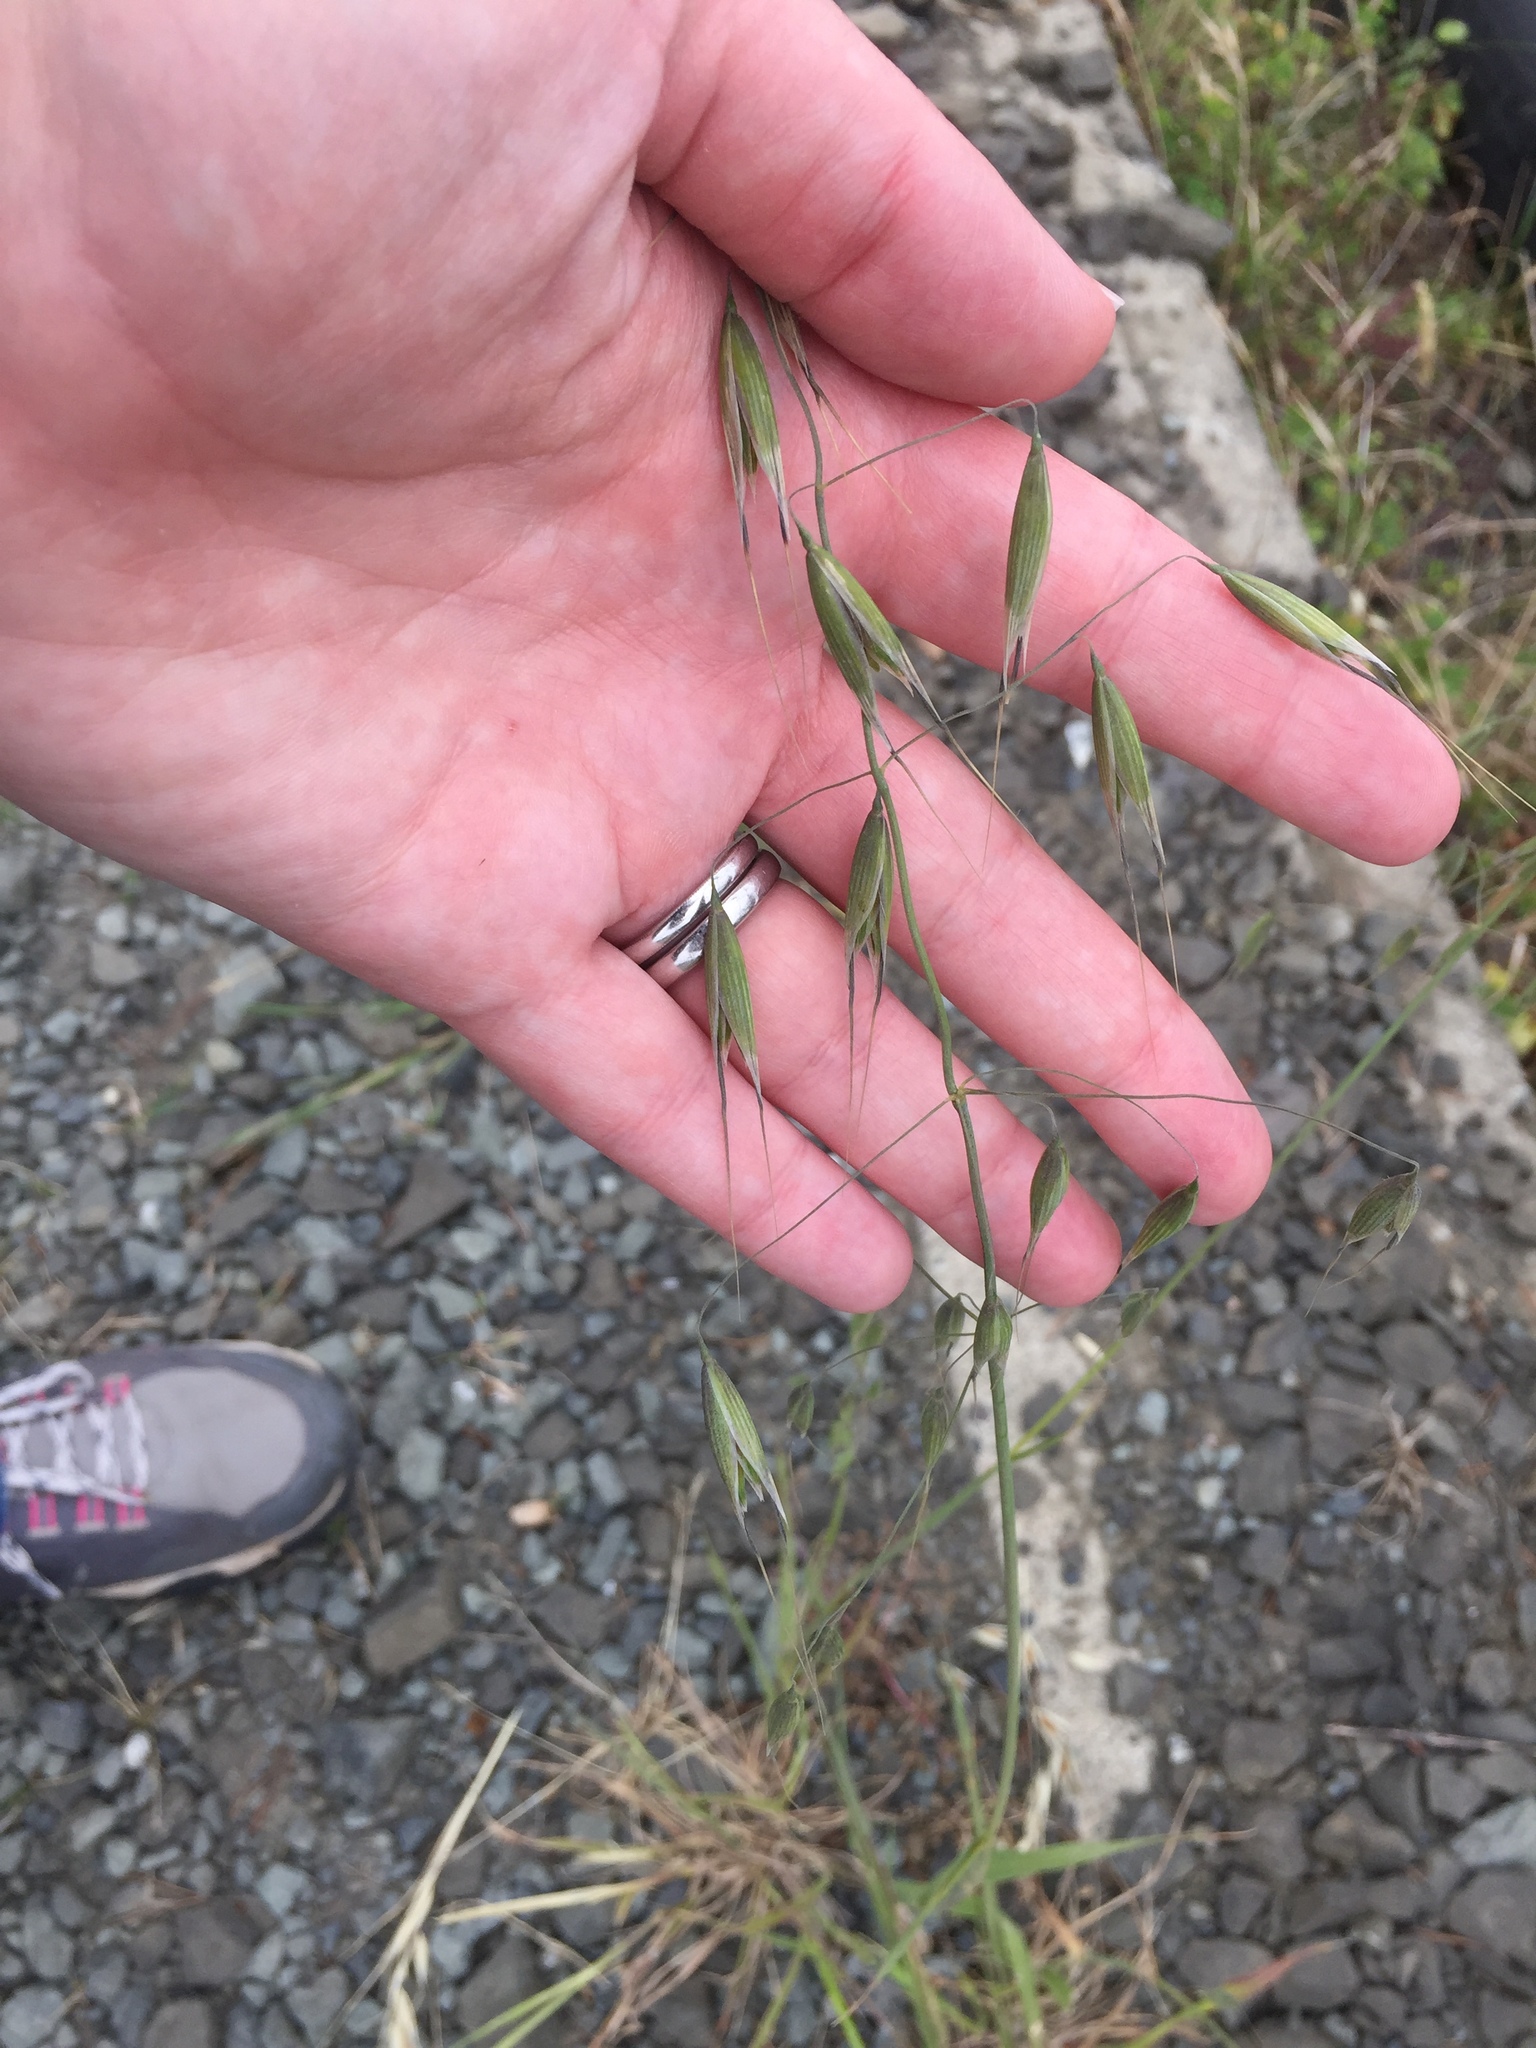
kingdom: Plantae
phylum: Tracheophyta
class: Liliopsida
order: Poales
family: Poaceae
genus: Avena
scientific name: Avena fatua
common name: Wild oat
